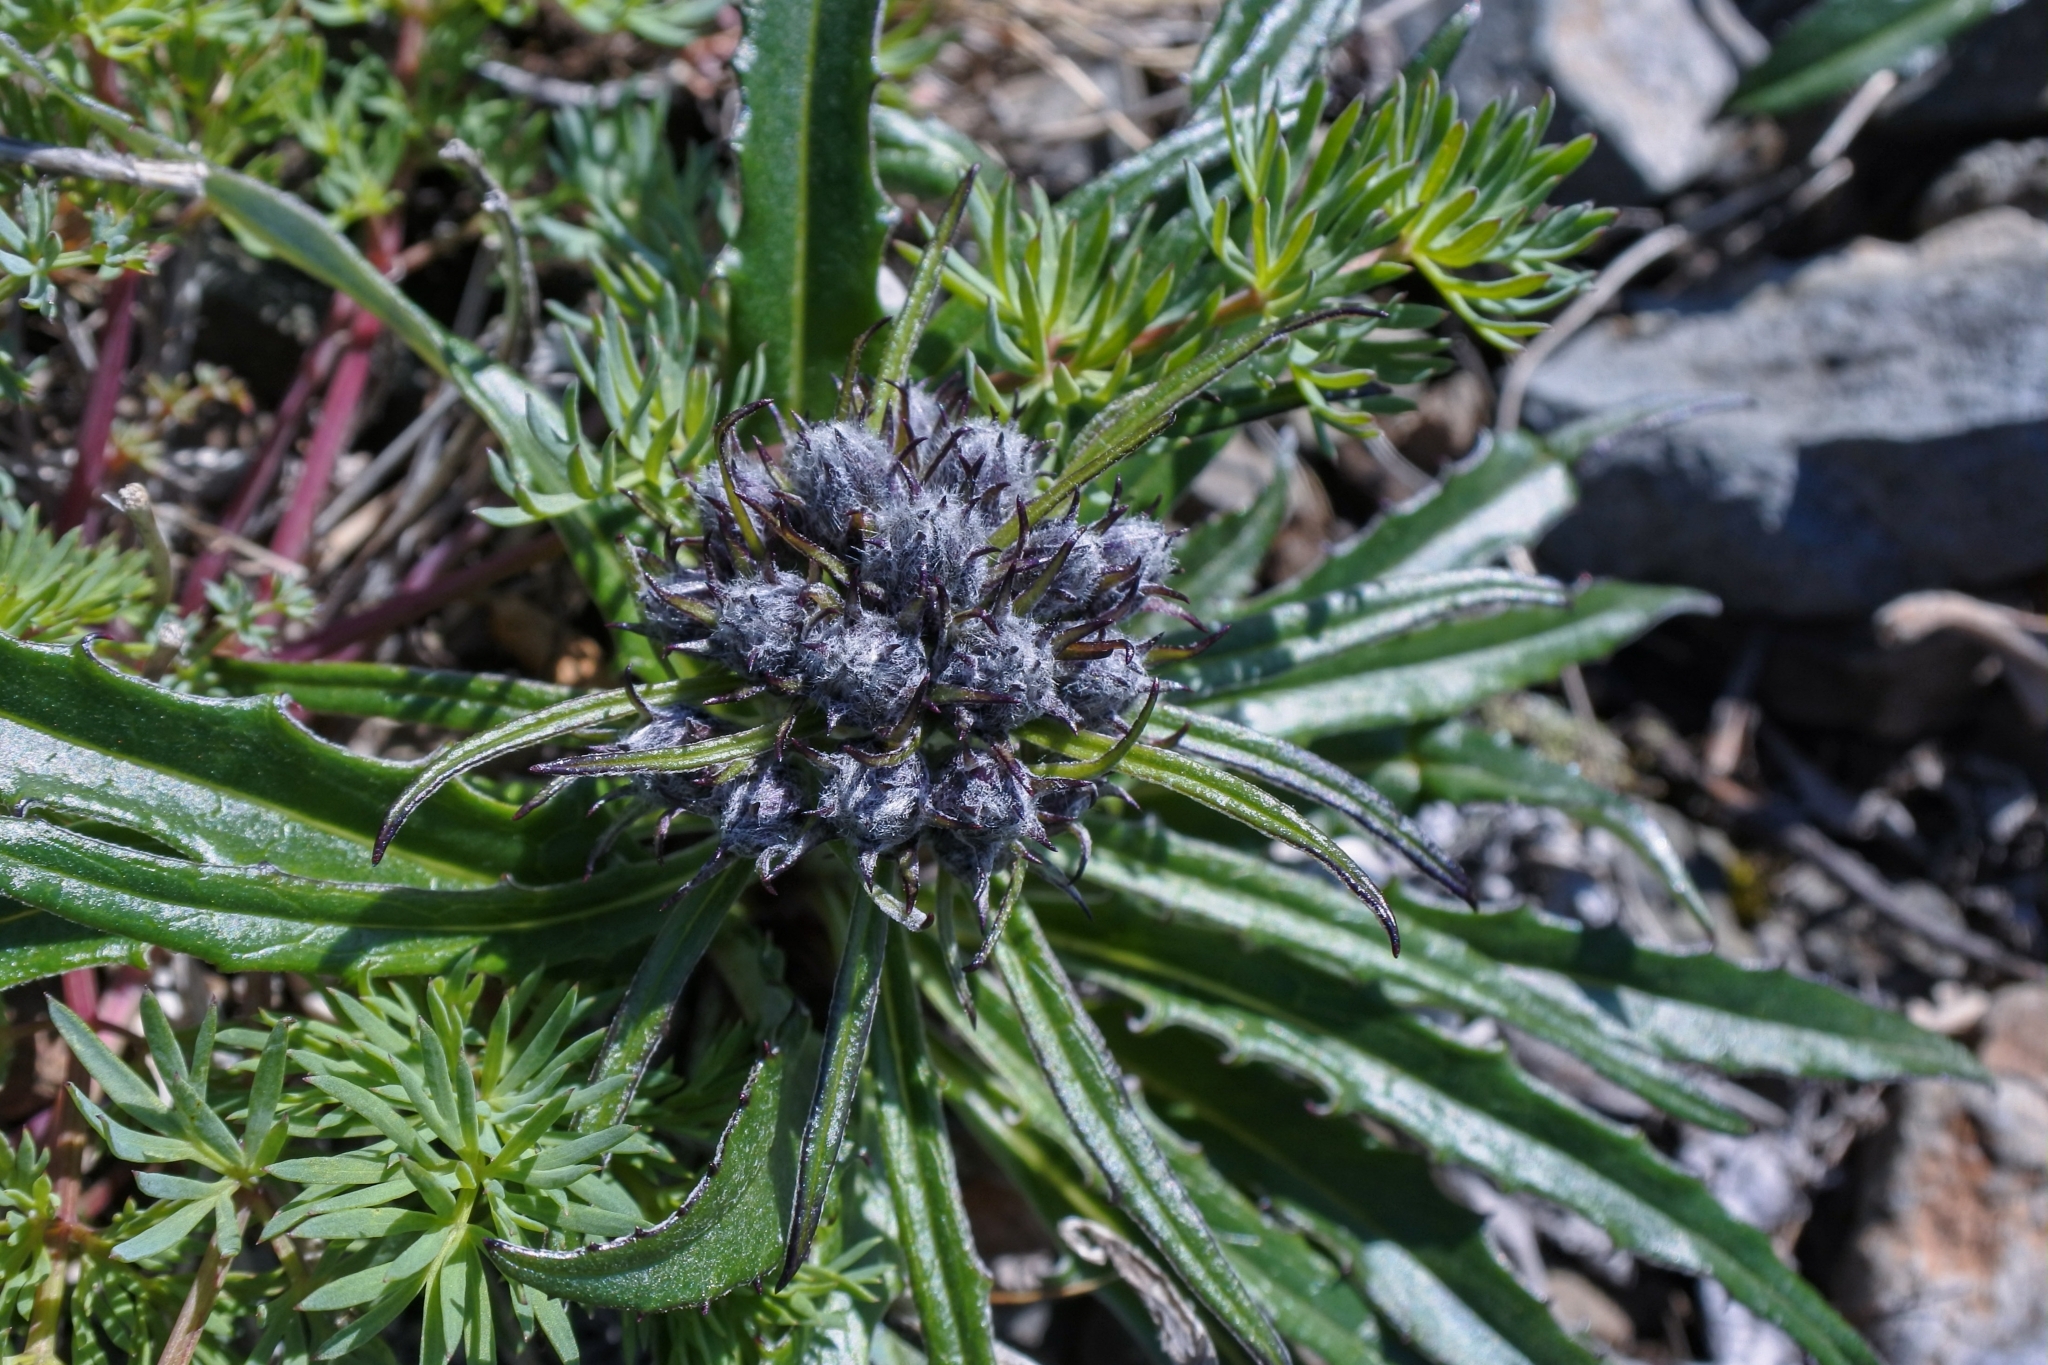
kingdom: Plantae
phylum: Tracheophyta
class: Magnoliopsida
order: Asterales
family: Asteraceae
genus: Saussurea
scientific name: Saussurea tilesii
